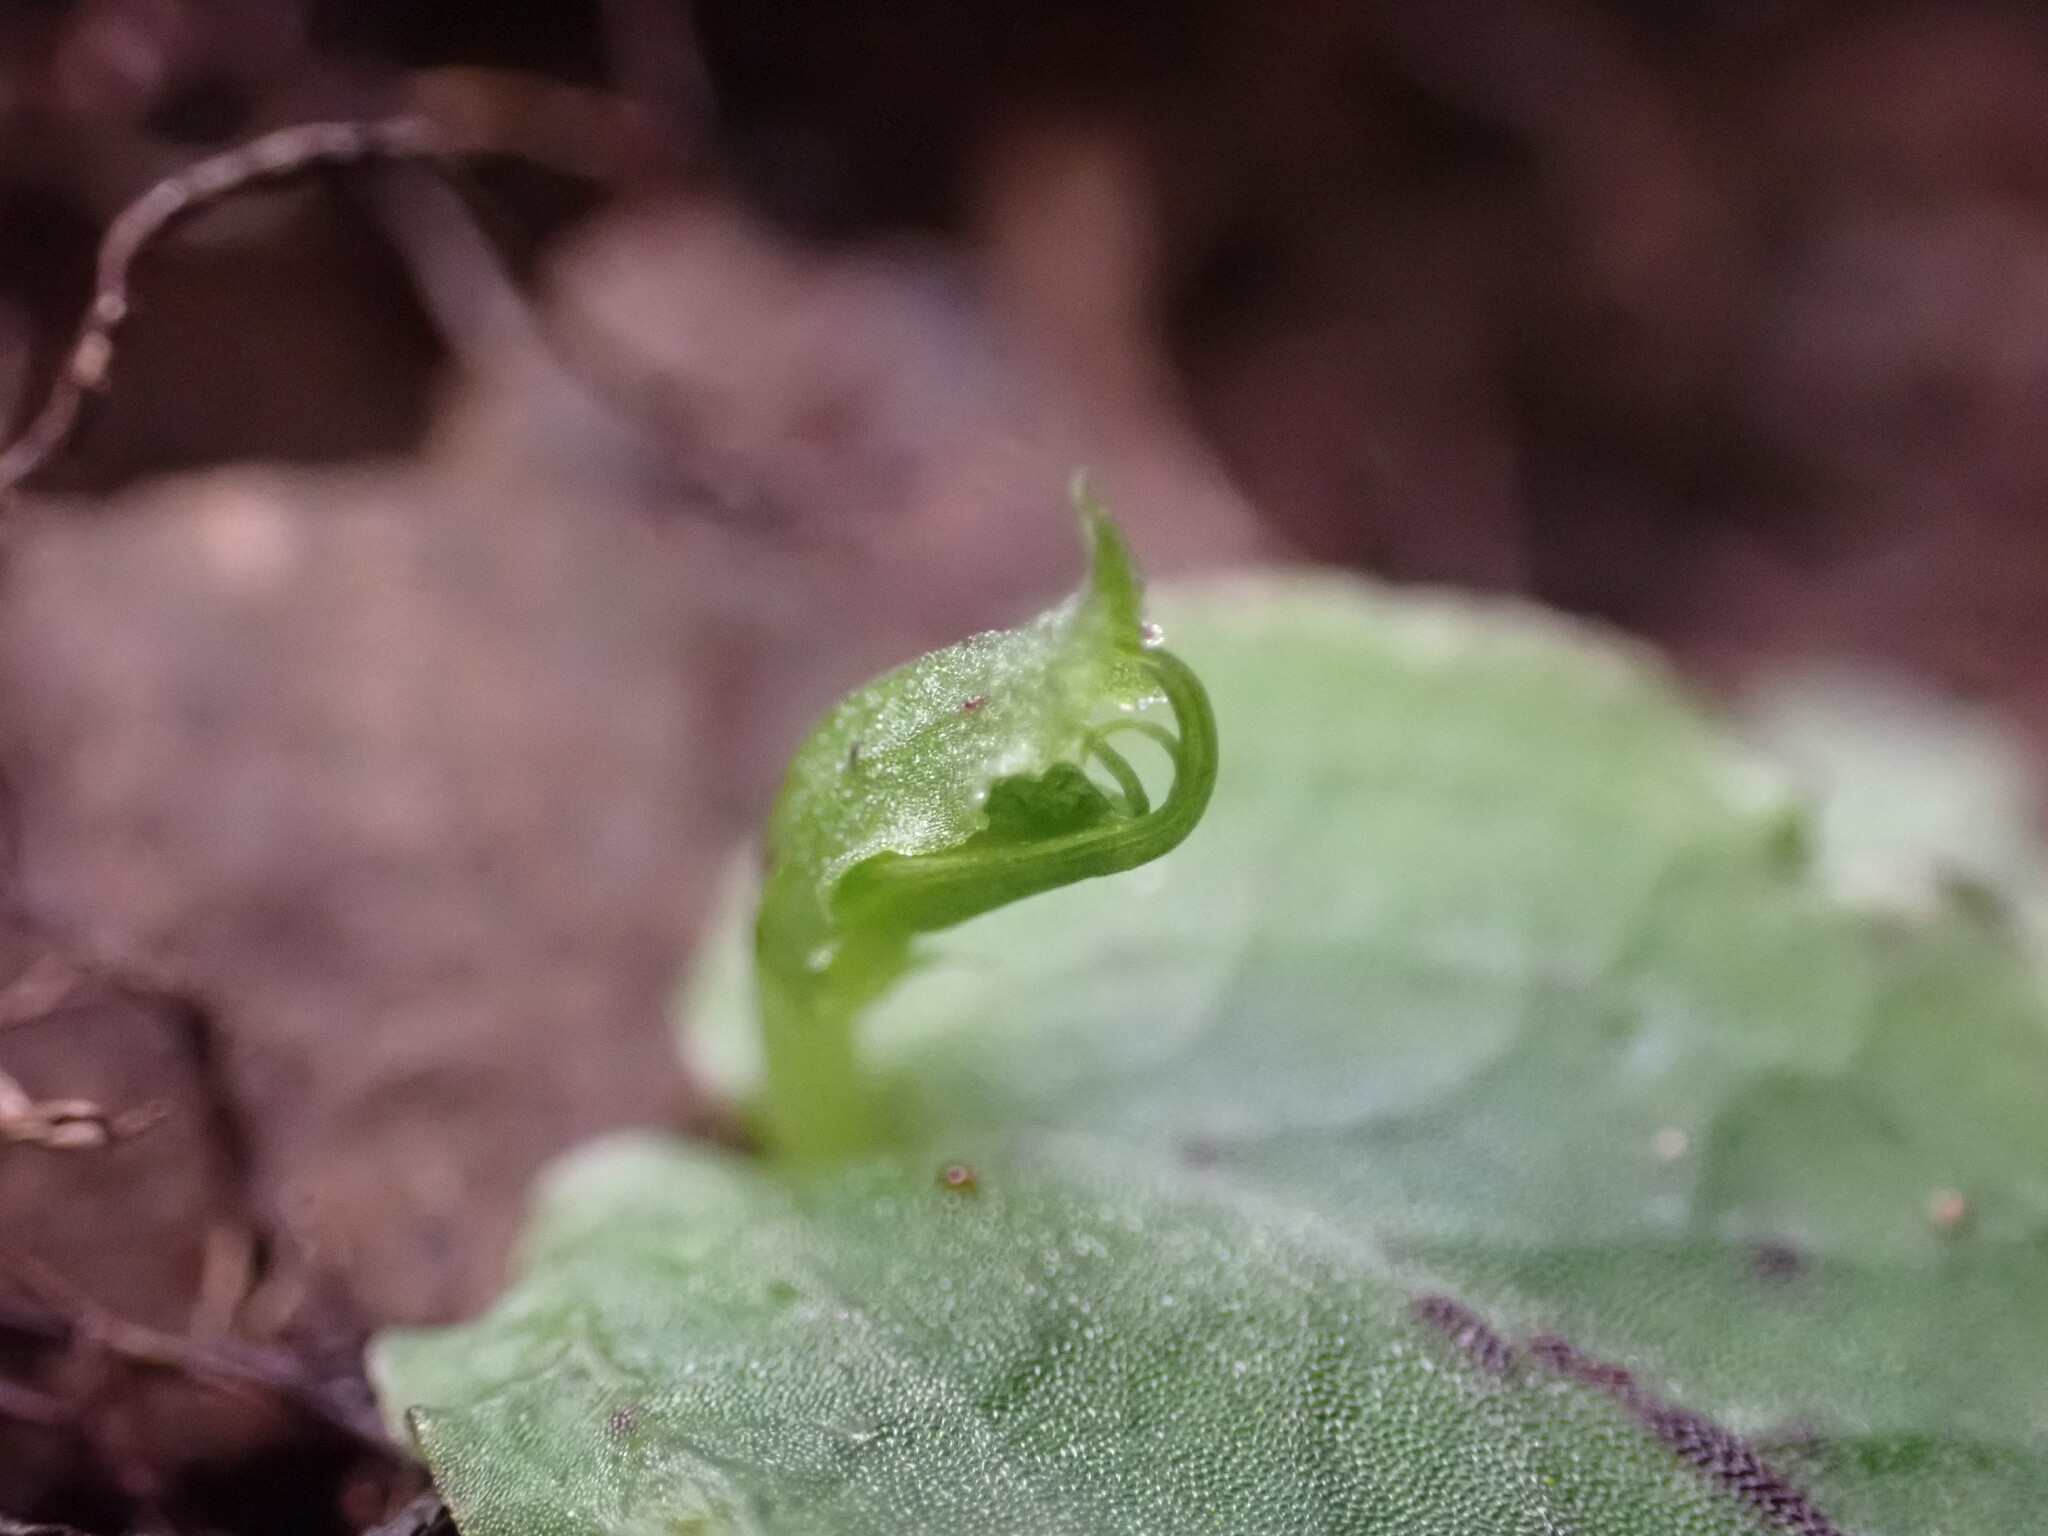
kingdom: Plantae
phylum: Tracheophyta
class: Liliopsida
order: Asparagales
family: Orchidaceae
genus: Corybas
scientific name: Corybas oblongus
